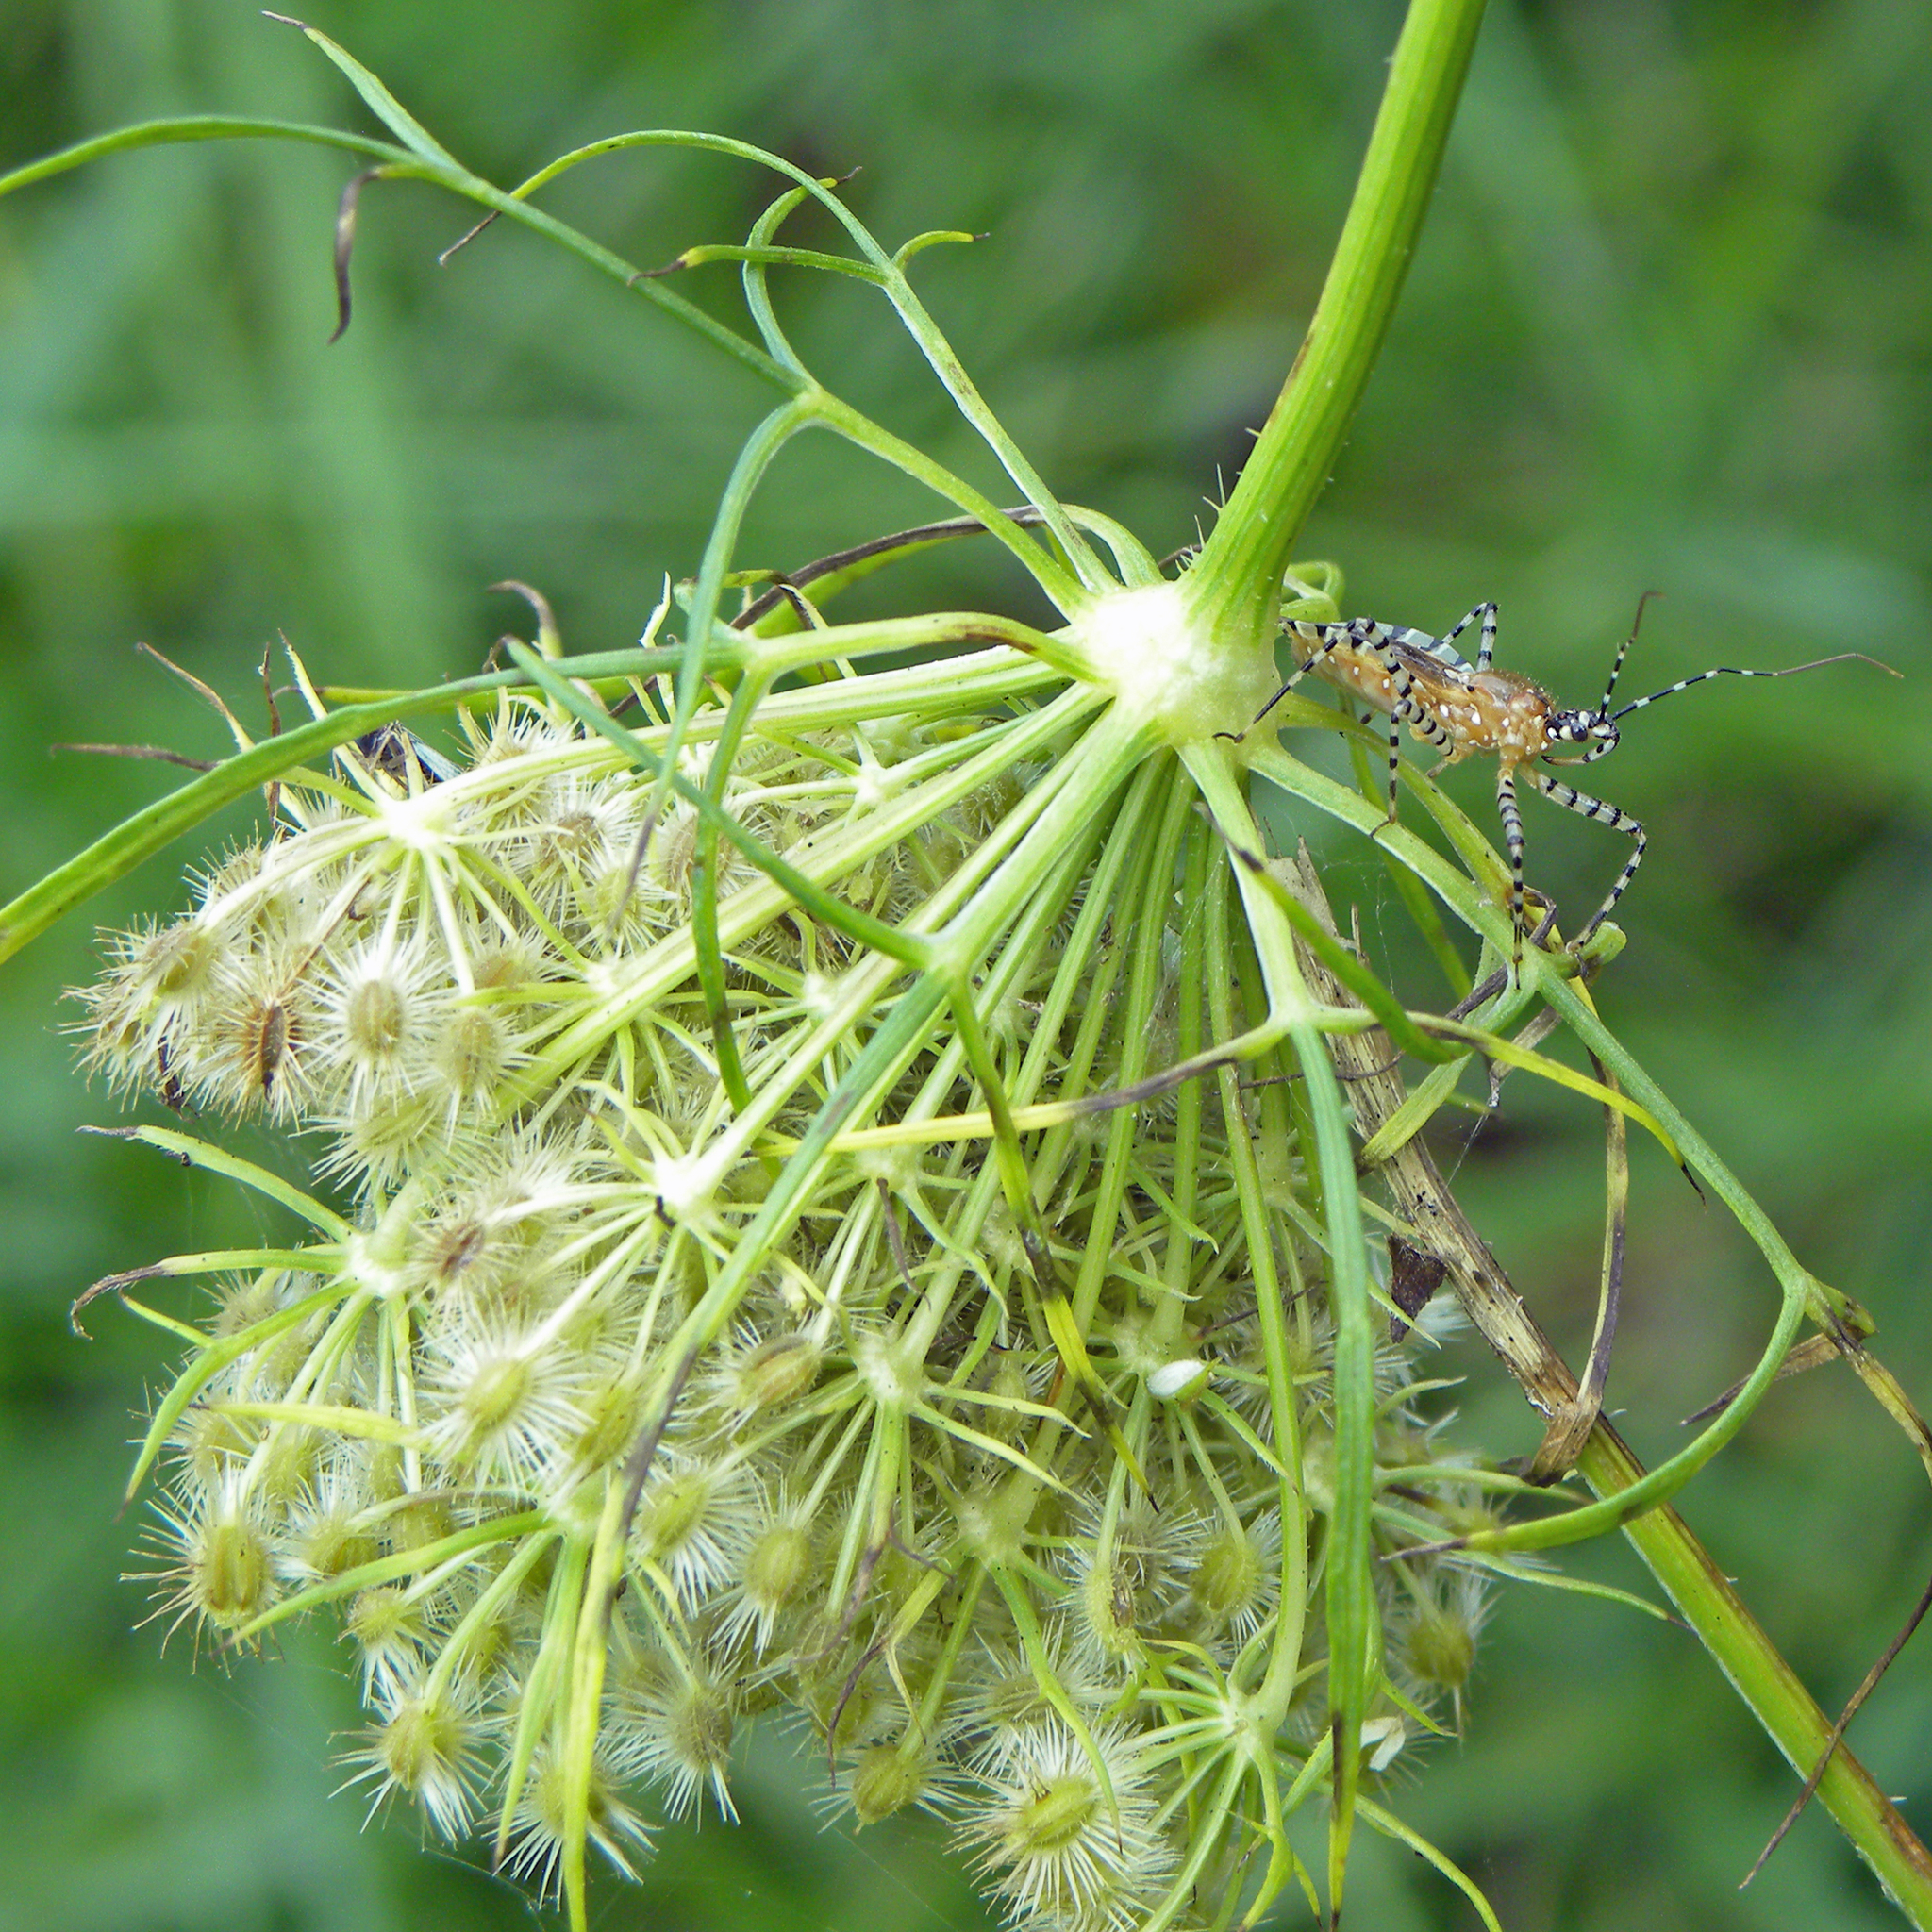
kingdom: Animalia
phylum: Arthropoda
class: Insecta
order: Hemiptera
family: Reduviidae
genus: Pselliopus
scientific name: Pselliopus cinctus
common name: Ringed assassin bug
